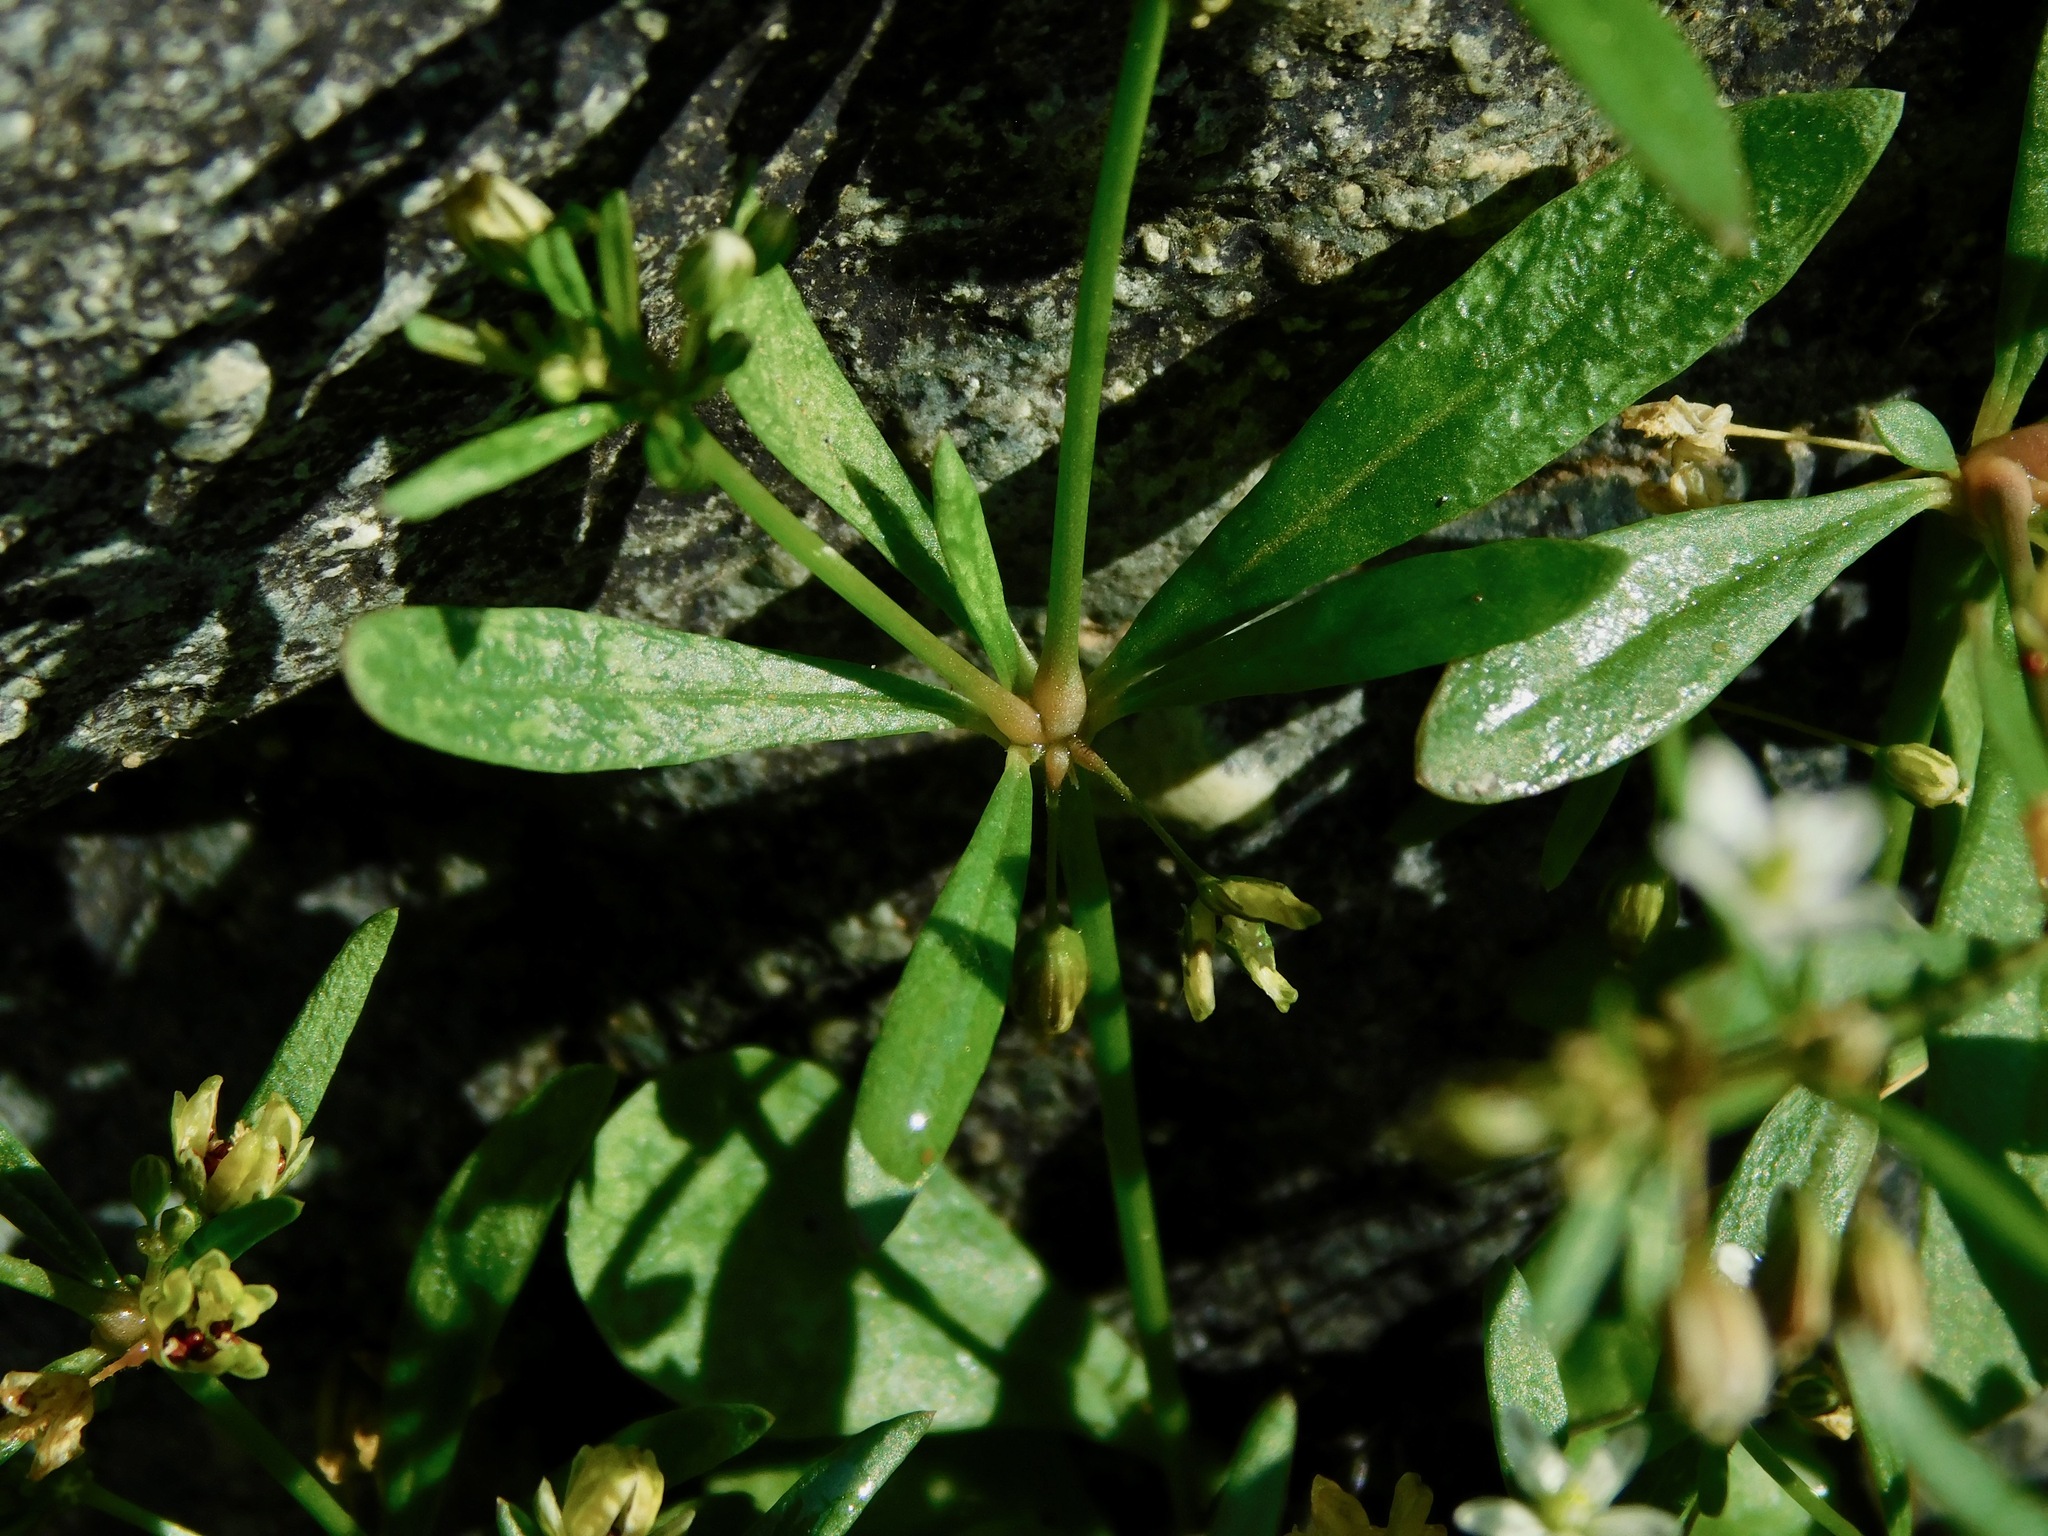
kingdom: Plantae
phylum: Tracheophyta
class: Magnoliopsida
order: Caryophyllales
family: Molluginaceae
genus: Mollugo
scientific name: Mollugo verticillata
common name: Green carpetweed
